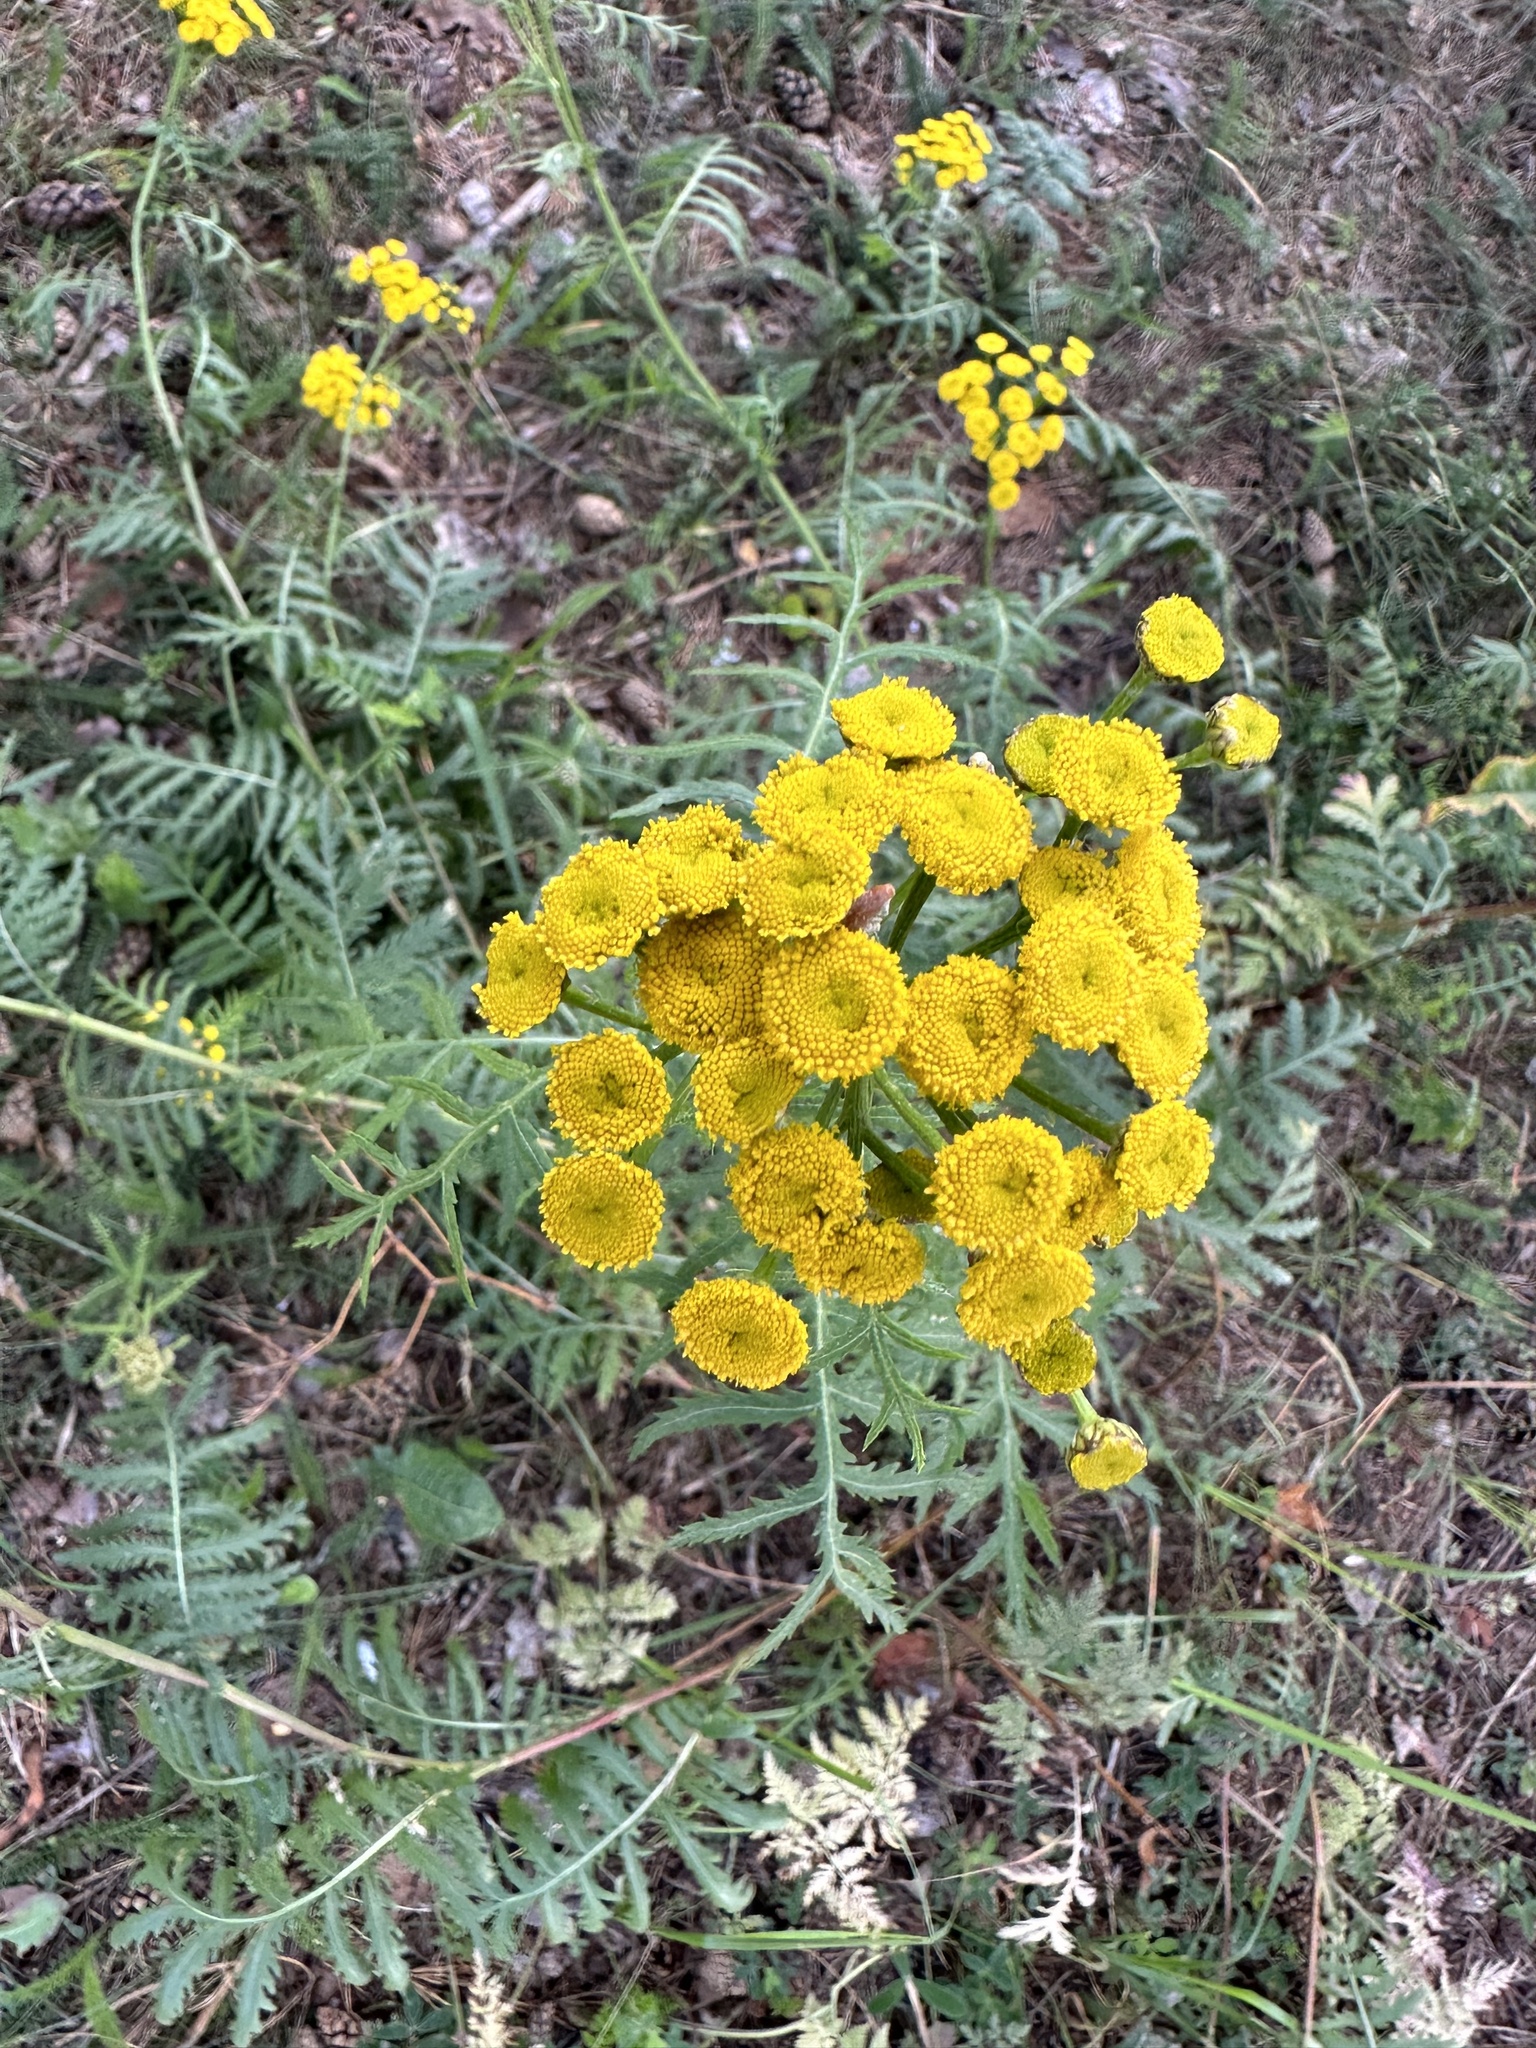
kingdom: Plantae
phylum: Tracheophyta
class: Magnoliopsida
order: Asterales
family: Asteraceae
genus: Tanacetum
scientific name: Tanacetum vulgare
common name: Common tansy
